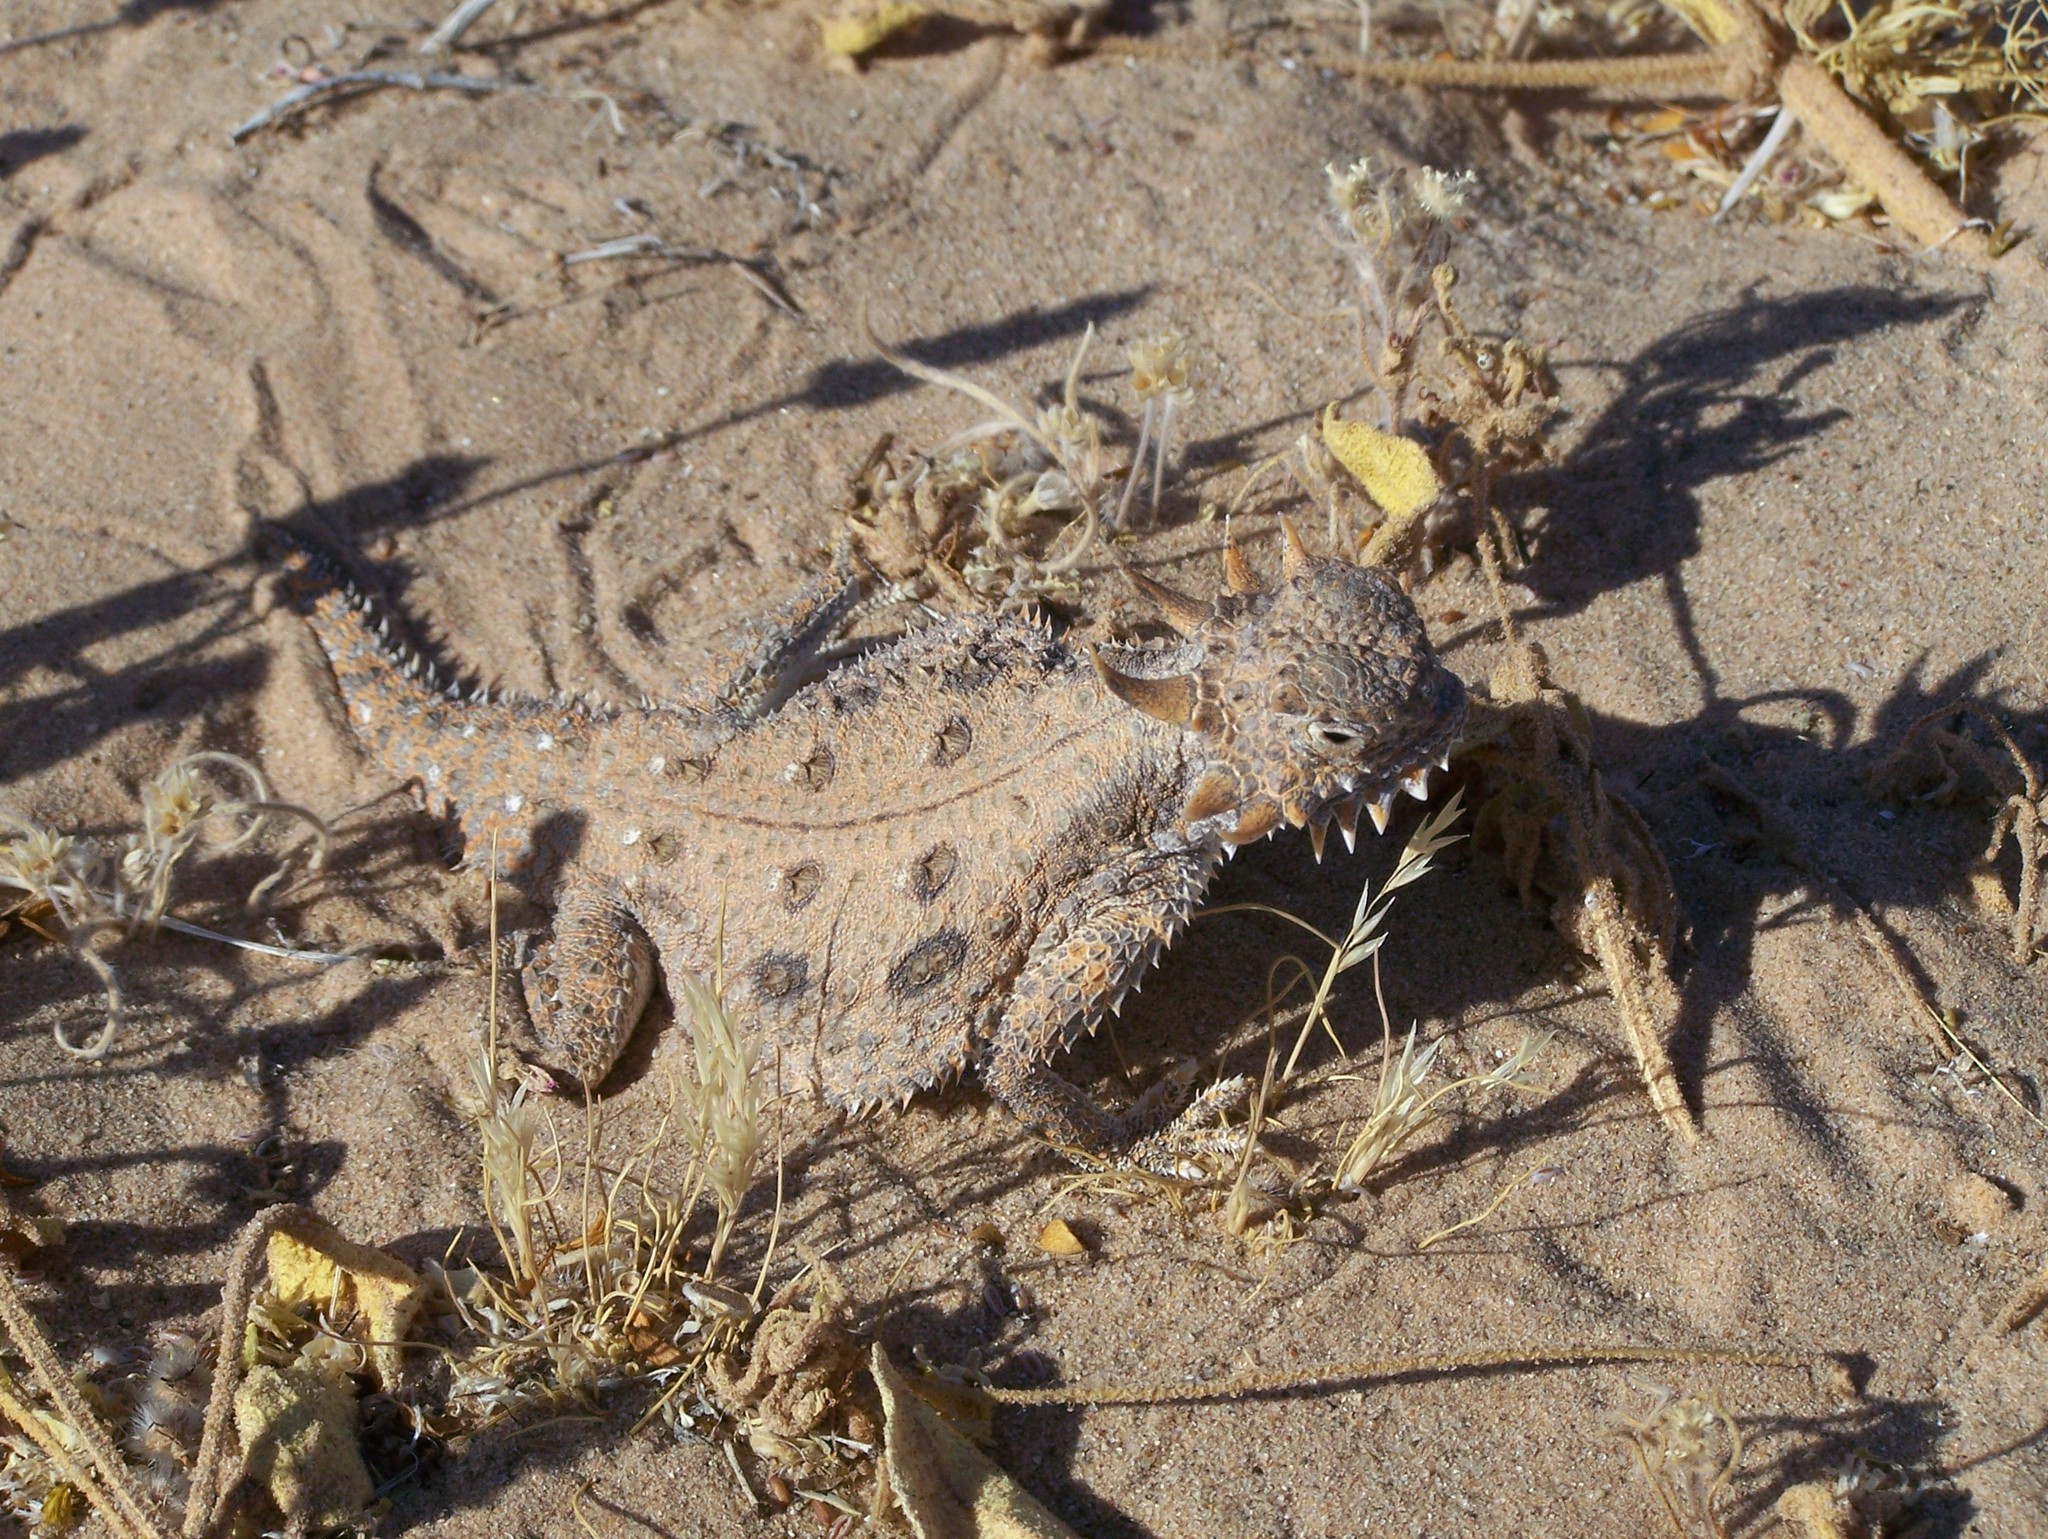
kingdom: Animalia
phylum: Chordata
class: Squamata
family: Phrynosomatidae
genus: Phrynosoma
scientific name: Phrynosoma mcallii
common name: Flat-tailed horned lizard
